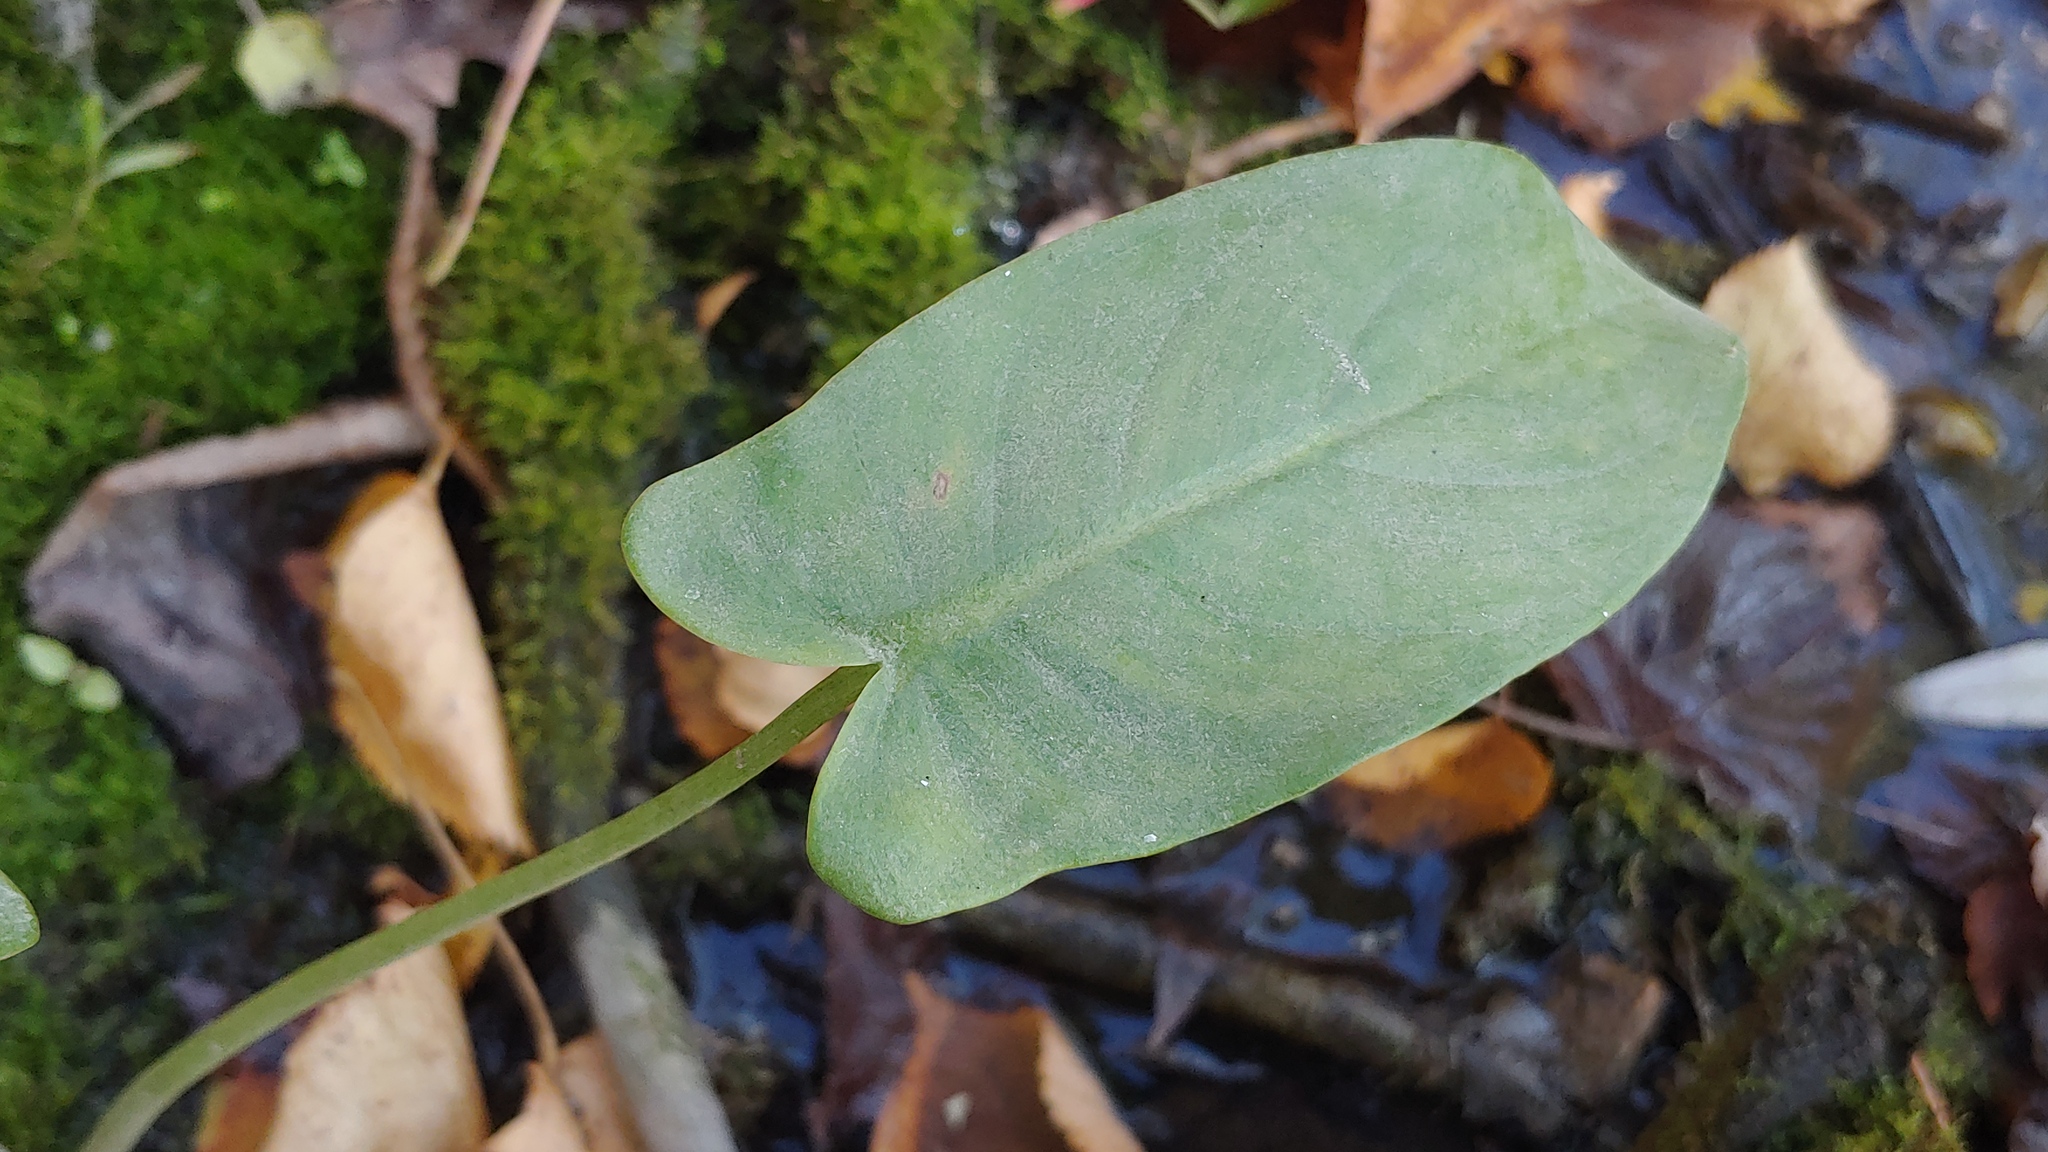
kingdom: Plantae
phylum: Tracheophyta
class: Liliopsida
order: Alismatales
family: Araceae
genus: Peltandra
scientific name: Peltandra virginica
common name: Arrow arum
